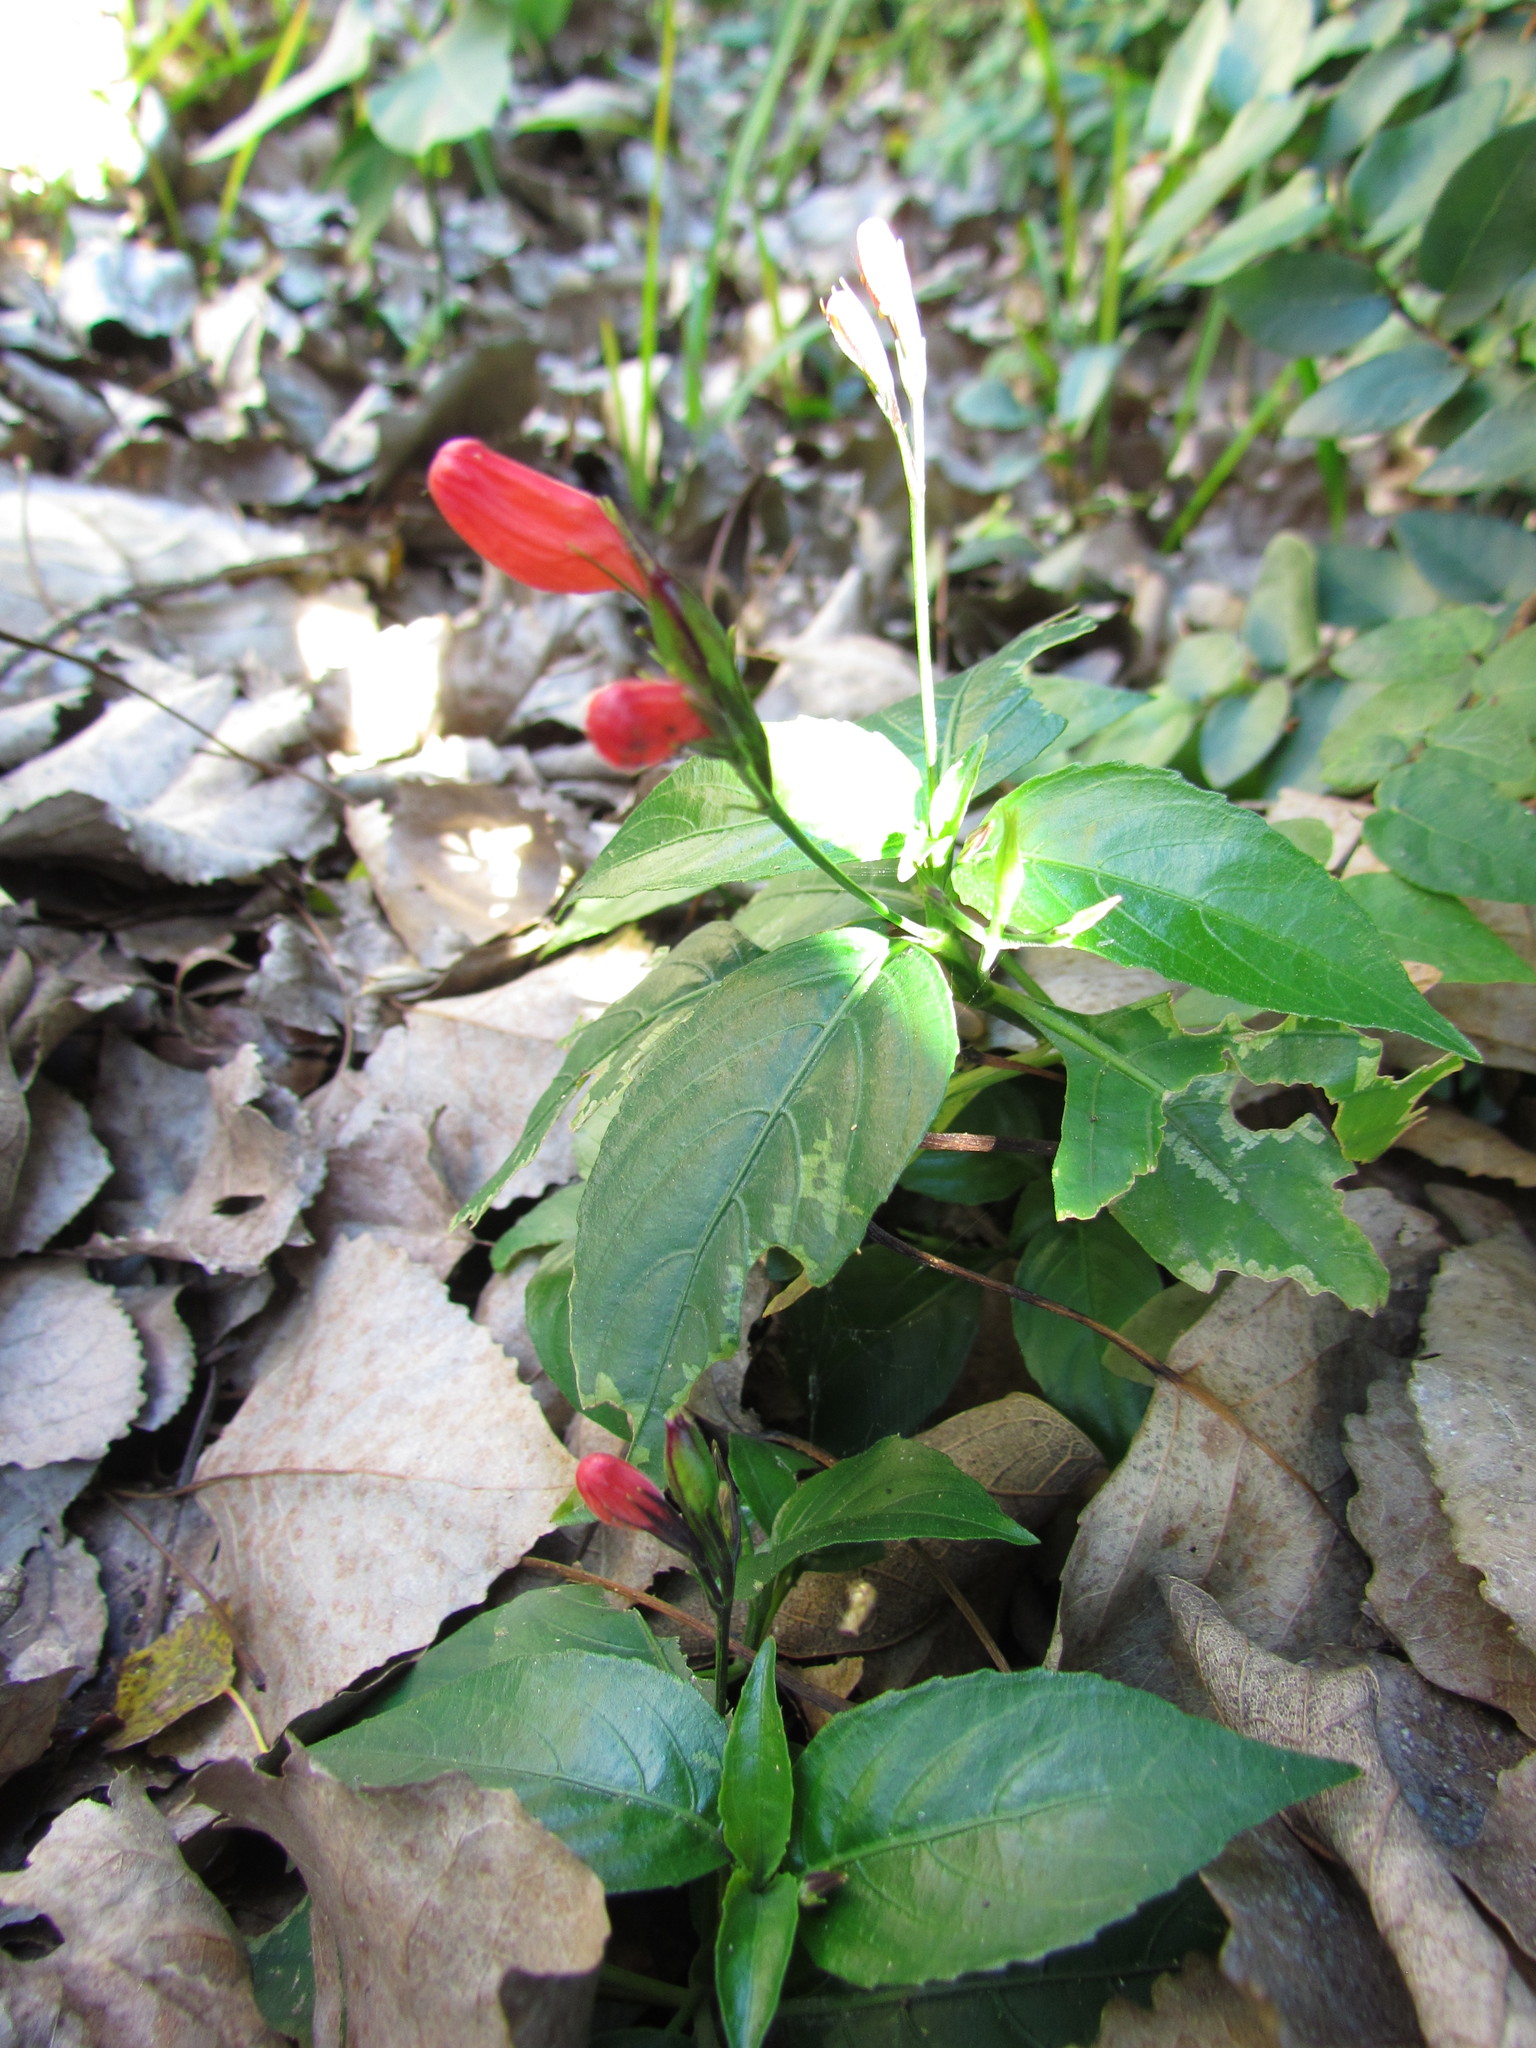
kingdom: Plantae
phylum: Tracheophyta
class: Magnoliopsida
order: Lamiales
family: Acanthaceae
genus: Ruellia
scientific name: Ruellia brevifolia
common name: Tropical wild petunia
